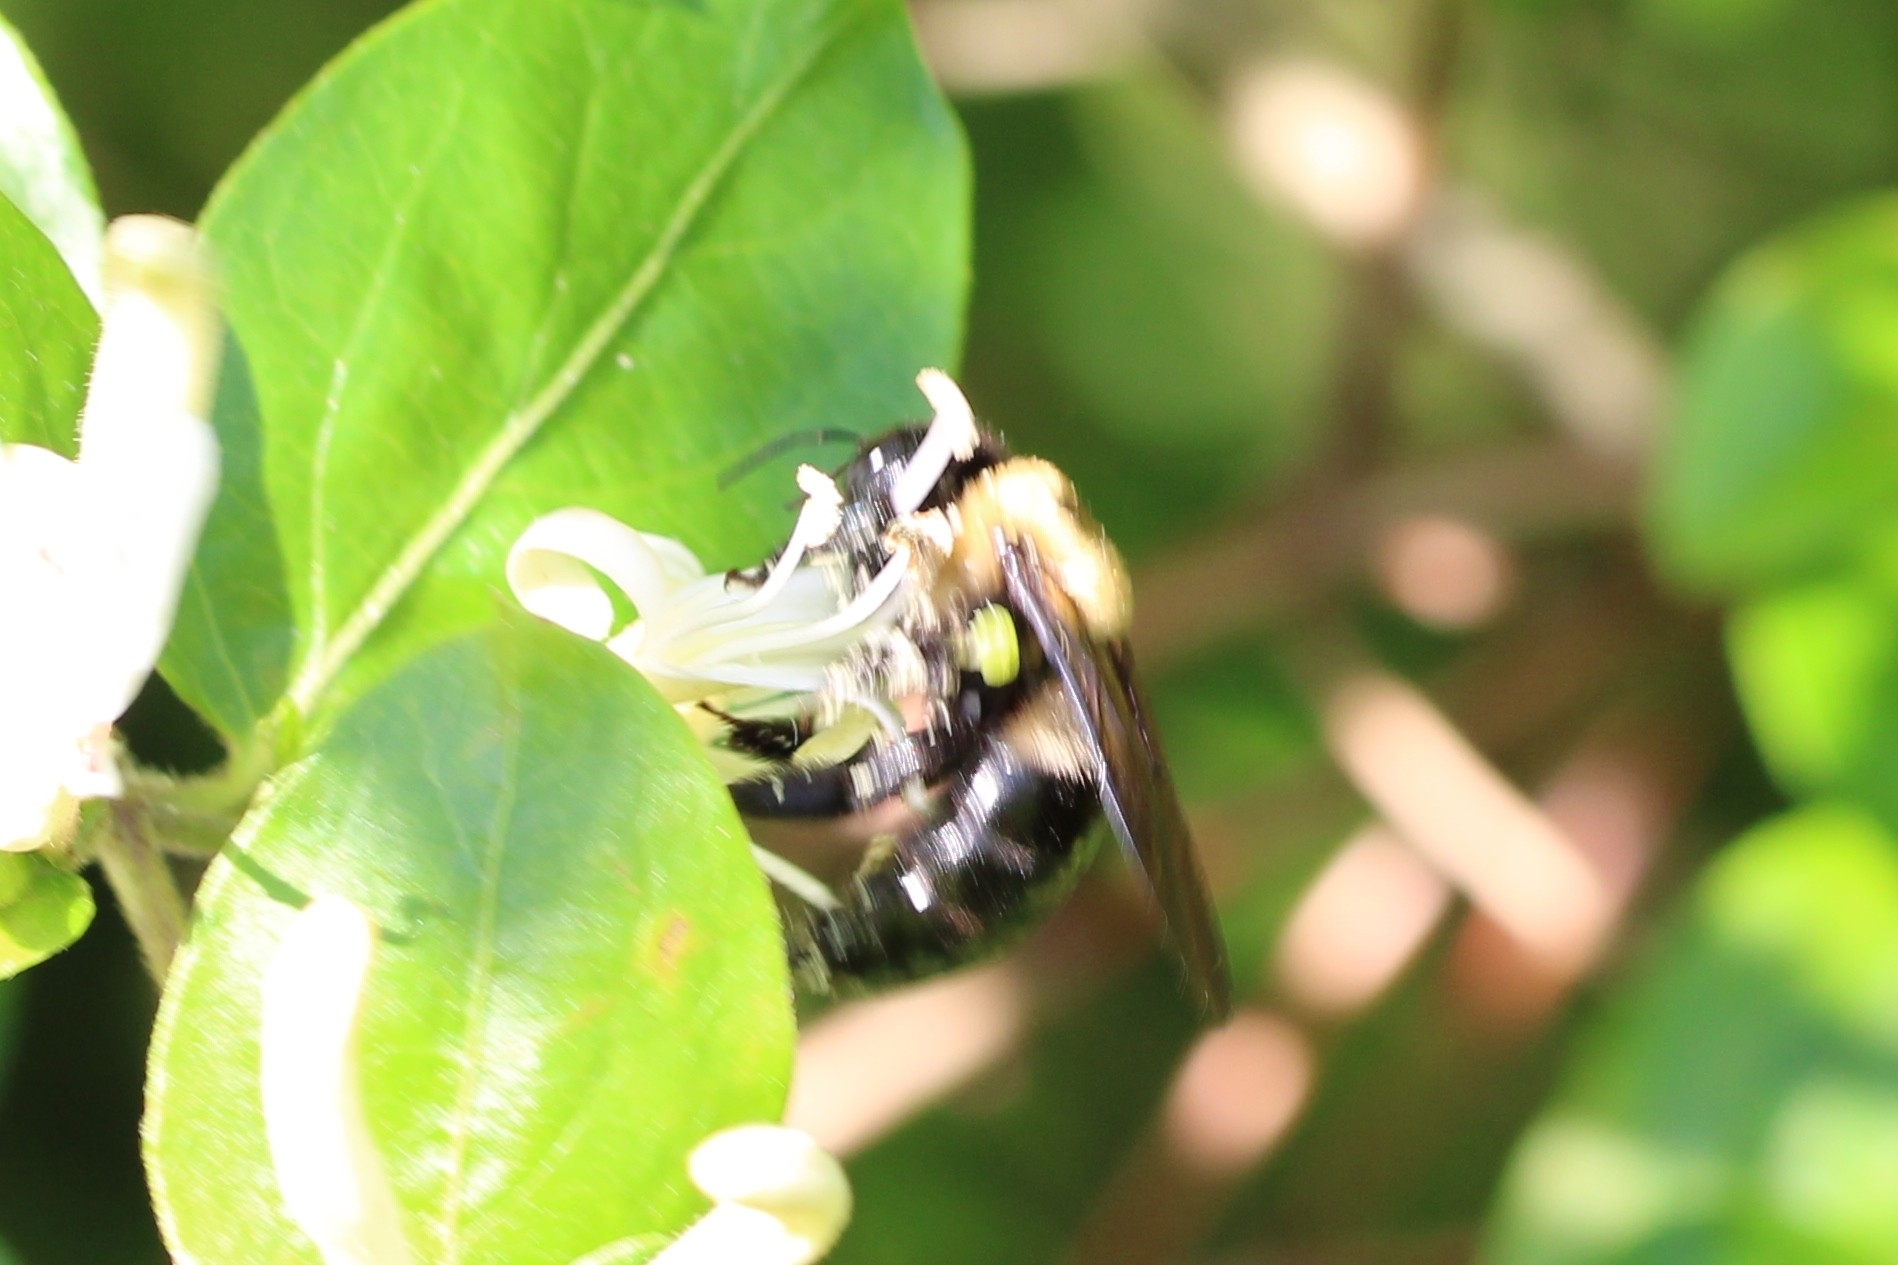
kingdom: Animalia
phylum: Arthropoda
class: Insecta
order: Hymenoptera
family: Apidae
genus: Xylocopa
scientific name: Xylocopa virginica
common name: Carpenter bee
